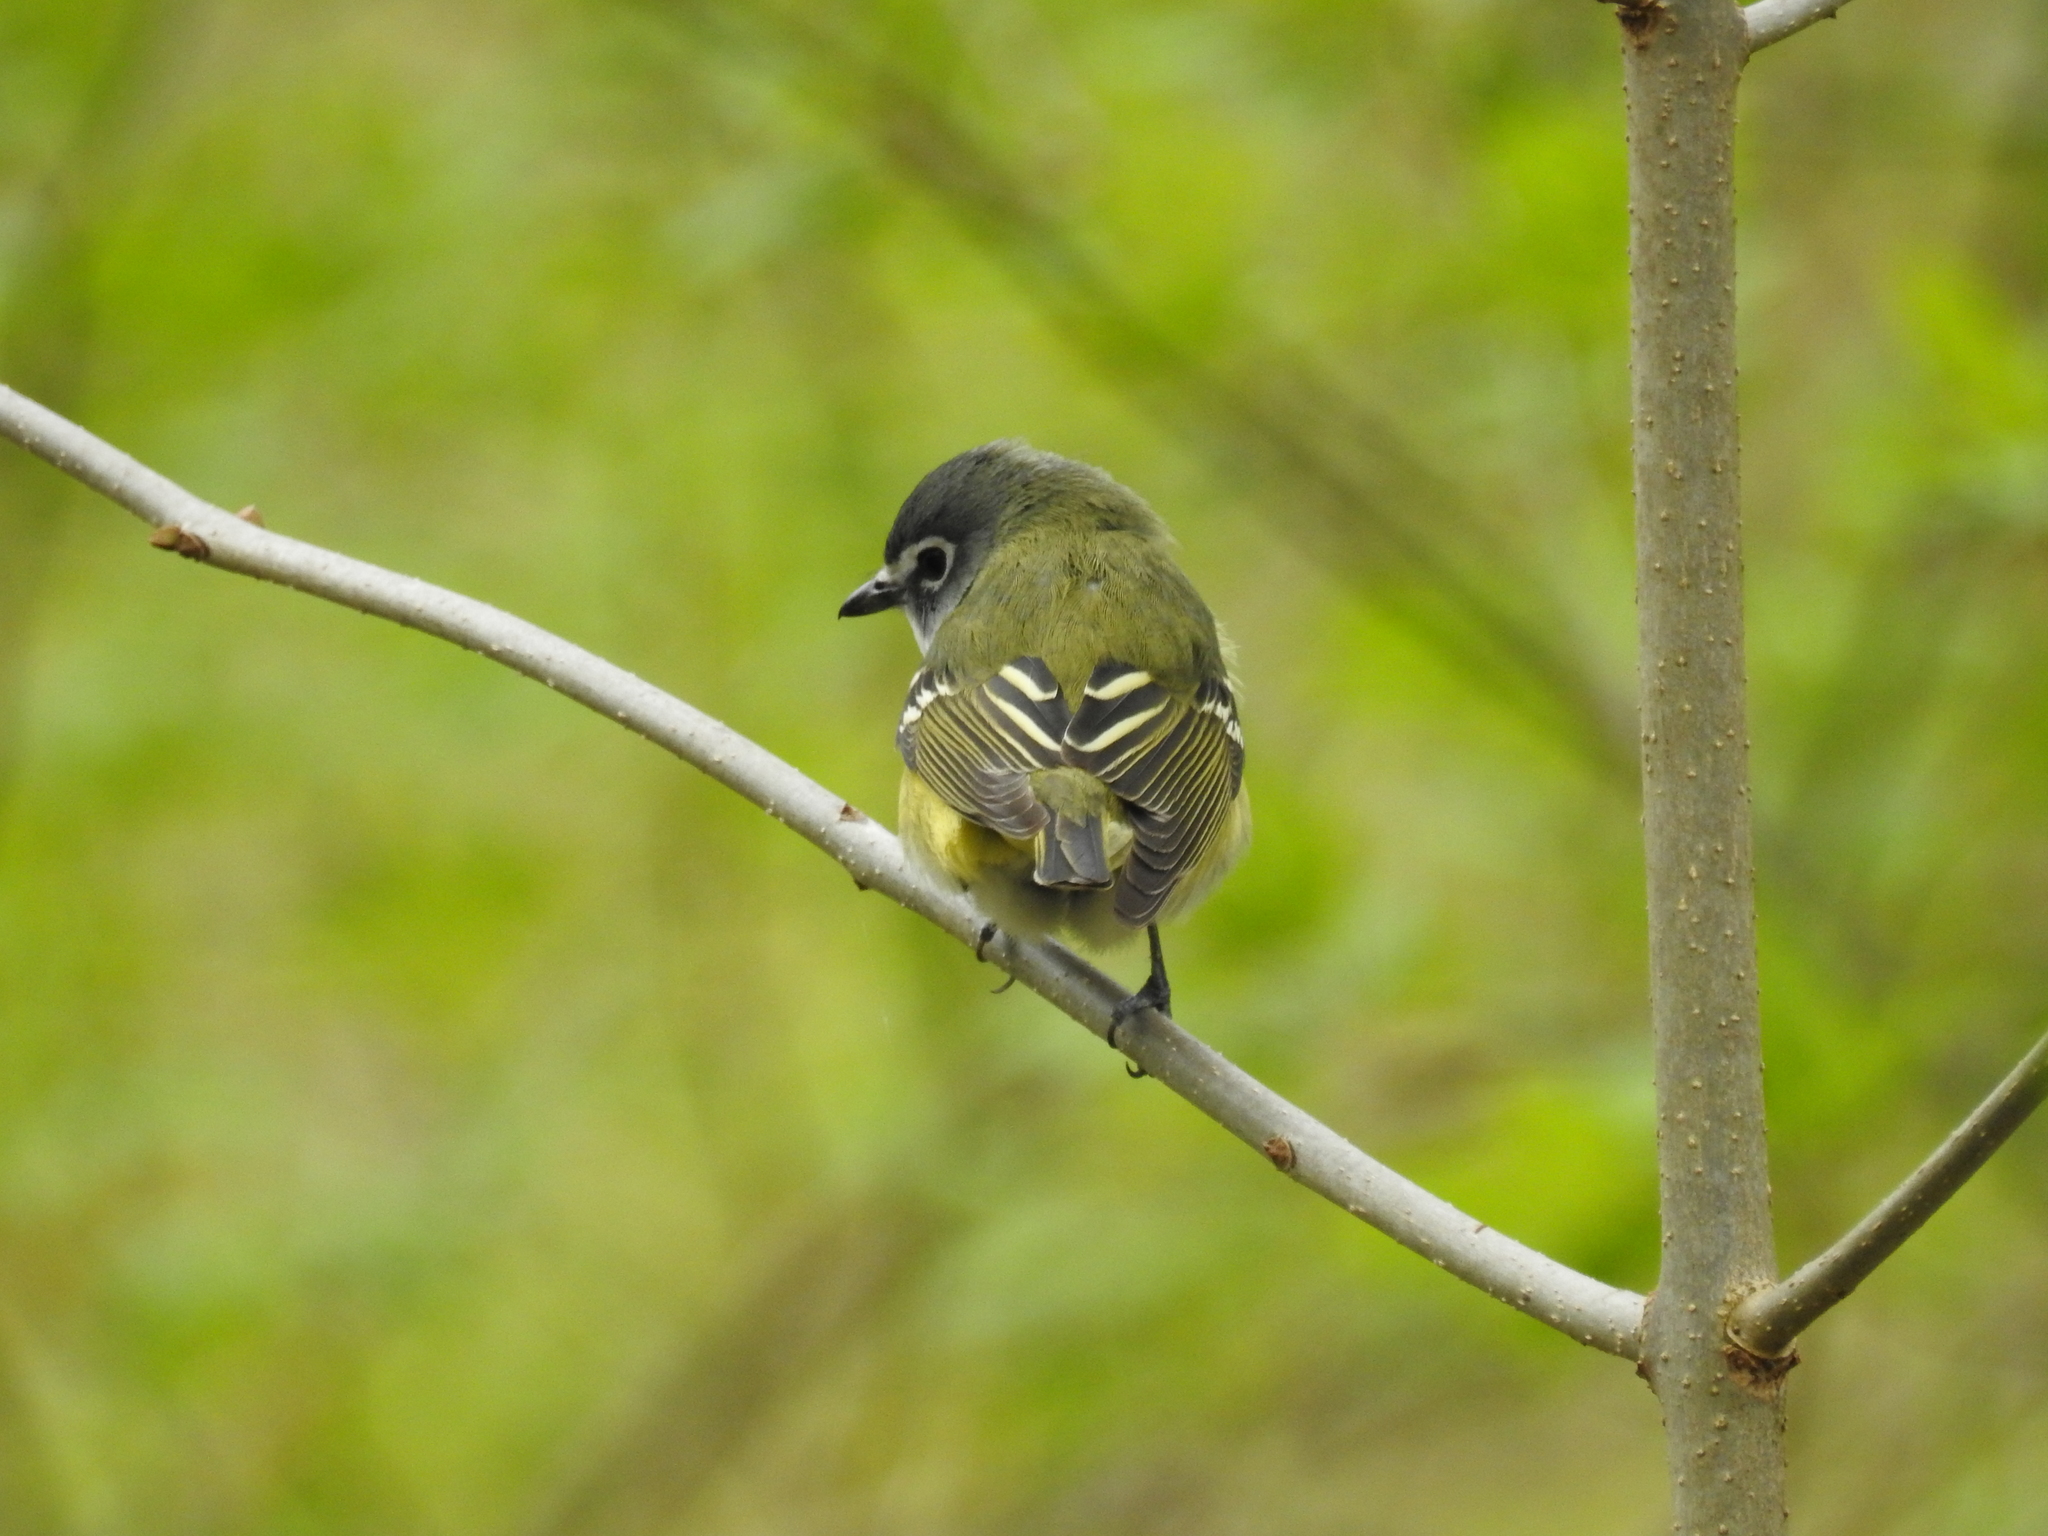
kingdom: Animalia
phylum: Chordata
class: Aves
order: Passeriformes
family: Vireonidae
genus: Vireo
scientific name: Vireo solitarius
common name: Blue-headed vireo
